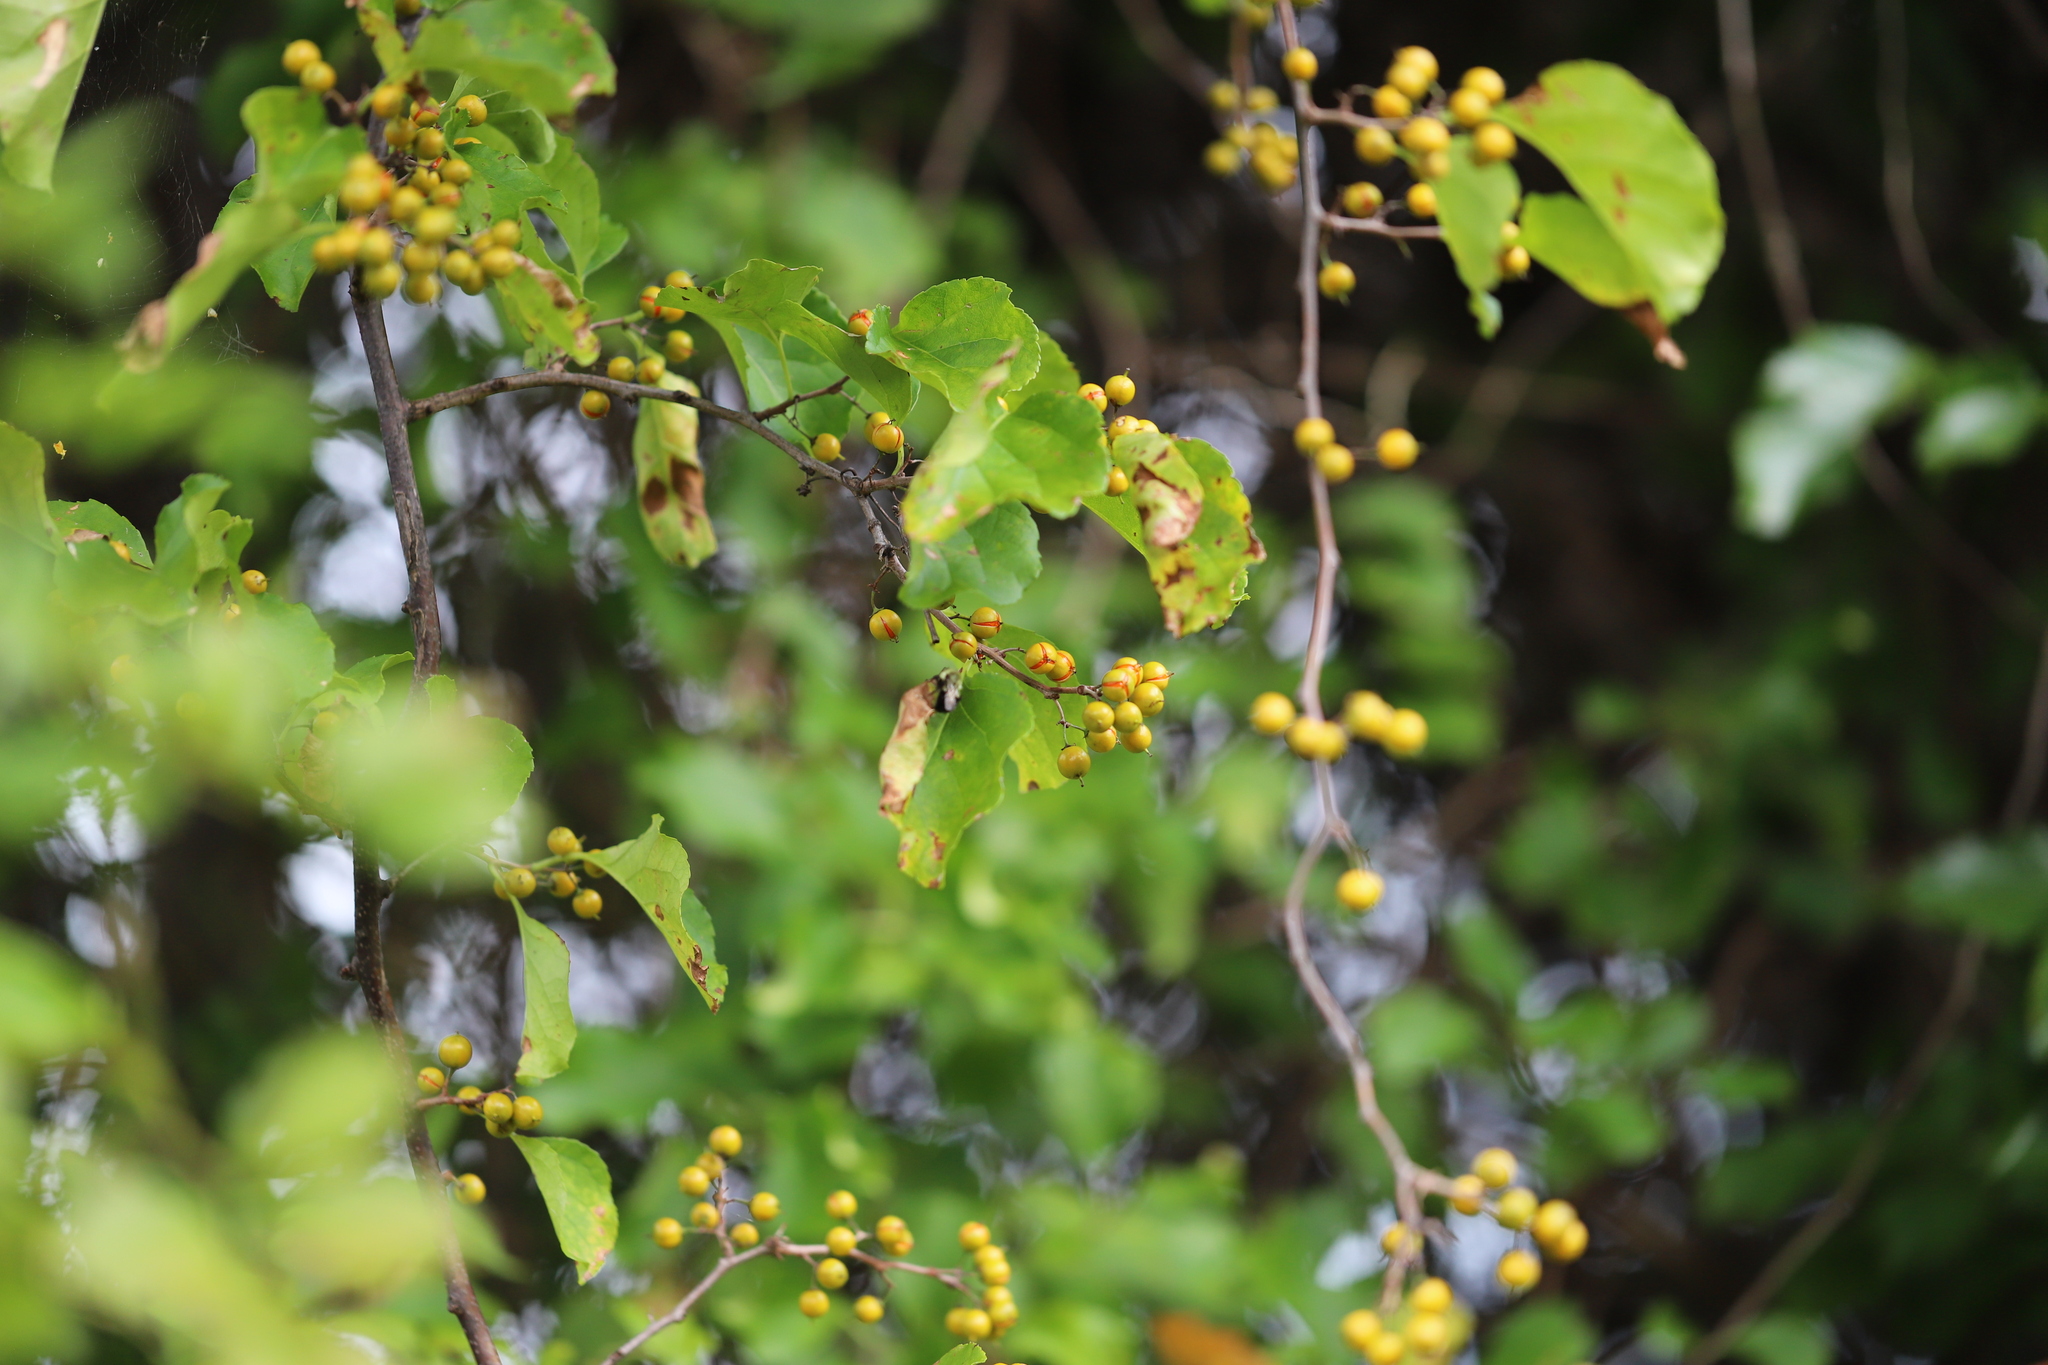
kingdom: Plantae
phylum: Tracheophyta
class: Magnoliopsida
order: Celastrales
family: Celastraceae
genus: Celastrus
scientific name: Celastrus orbiculatus
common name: Oriental bittersweet
